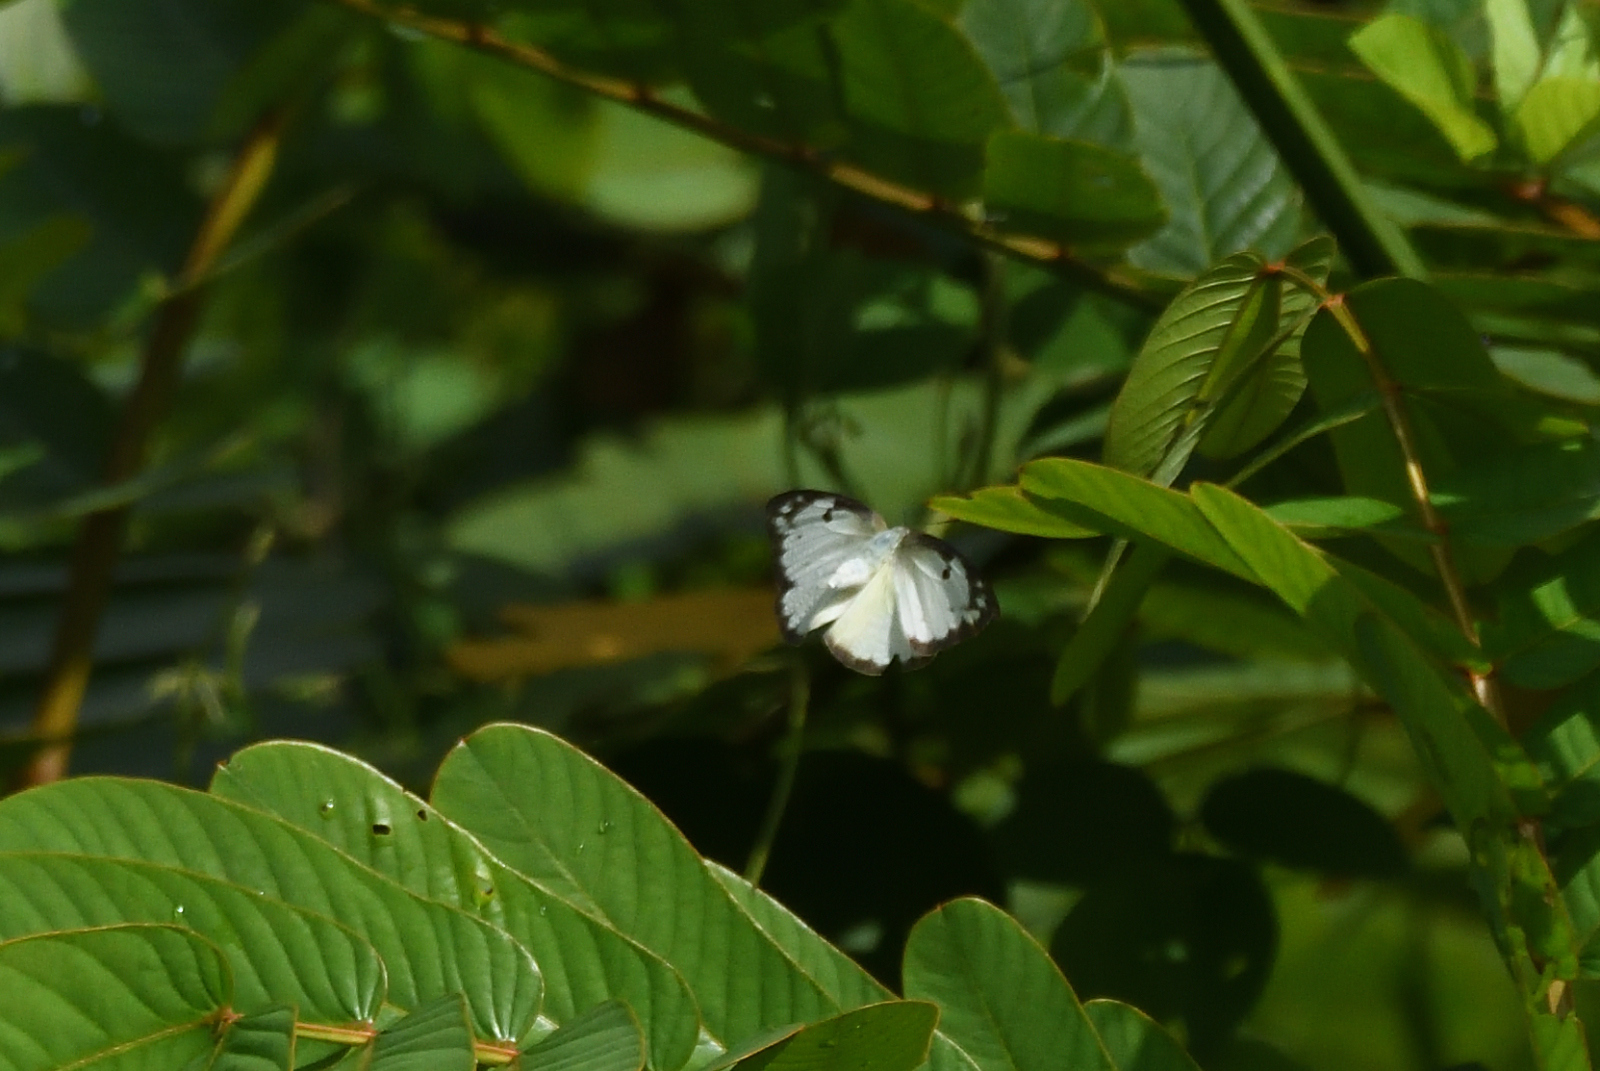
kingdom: Animalia
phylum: Arthropoda
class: Insecta
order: Lepidoptera
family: Pieridae
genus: Belenois
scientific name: Belenois aurota
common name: Brown-veined white
